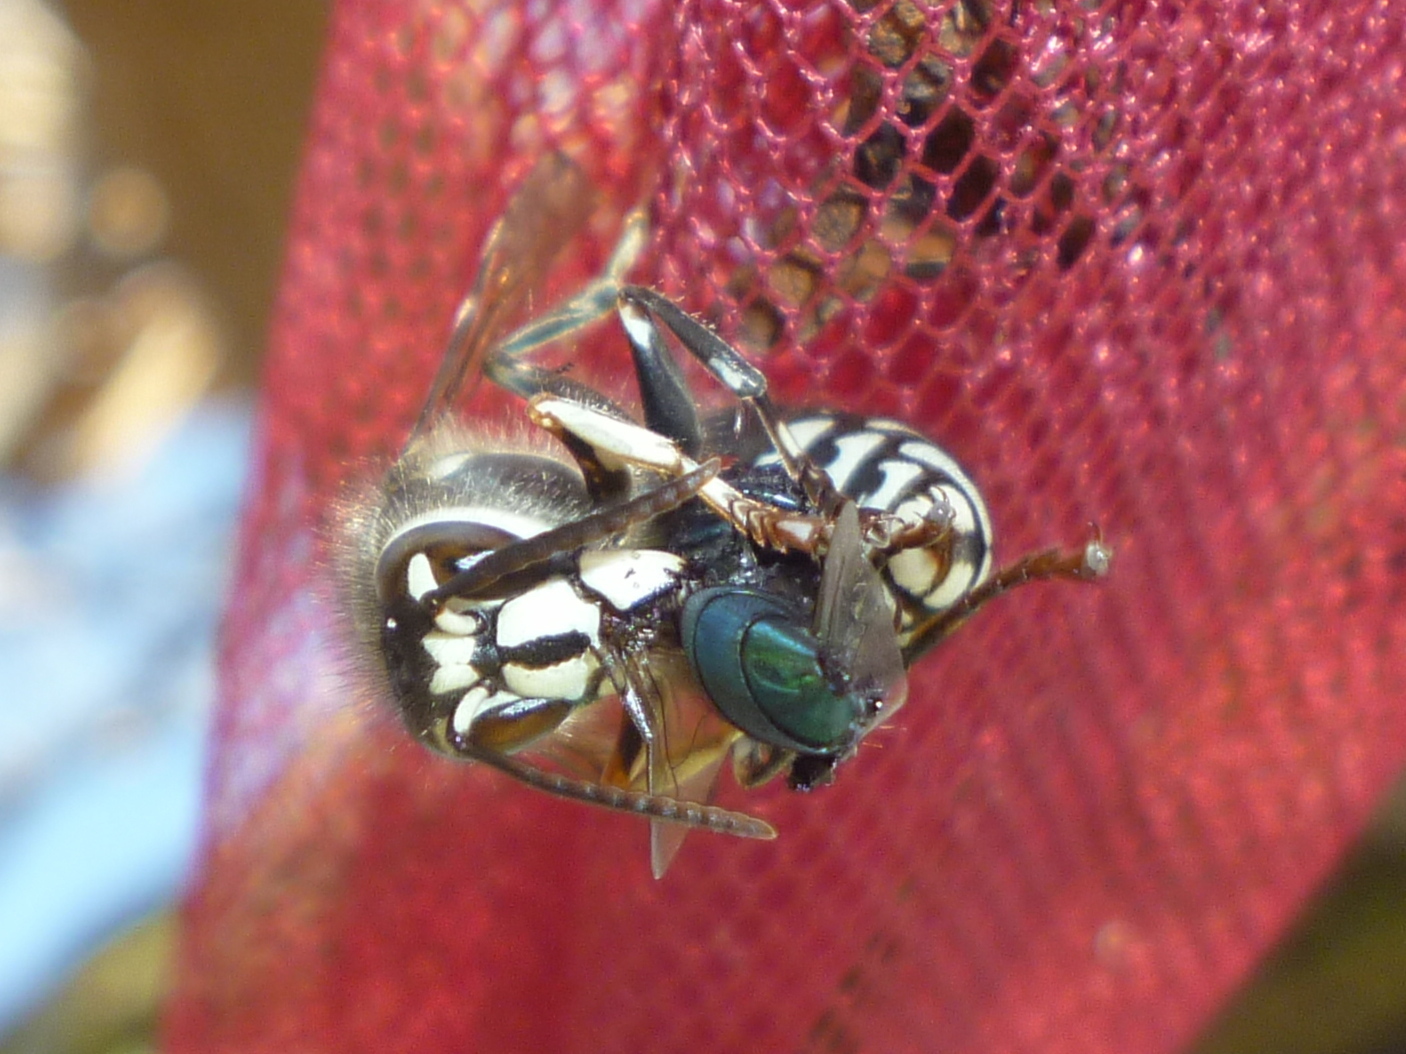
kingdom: Animalia
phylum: Arthropoda
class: Insecta
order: Hymenoptera
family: Vespidae
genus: Dolichovespula
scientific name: Dolichovespula maculata
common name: Bald-faced hornet
